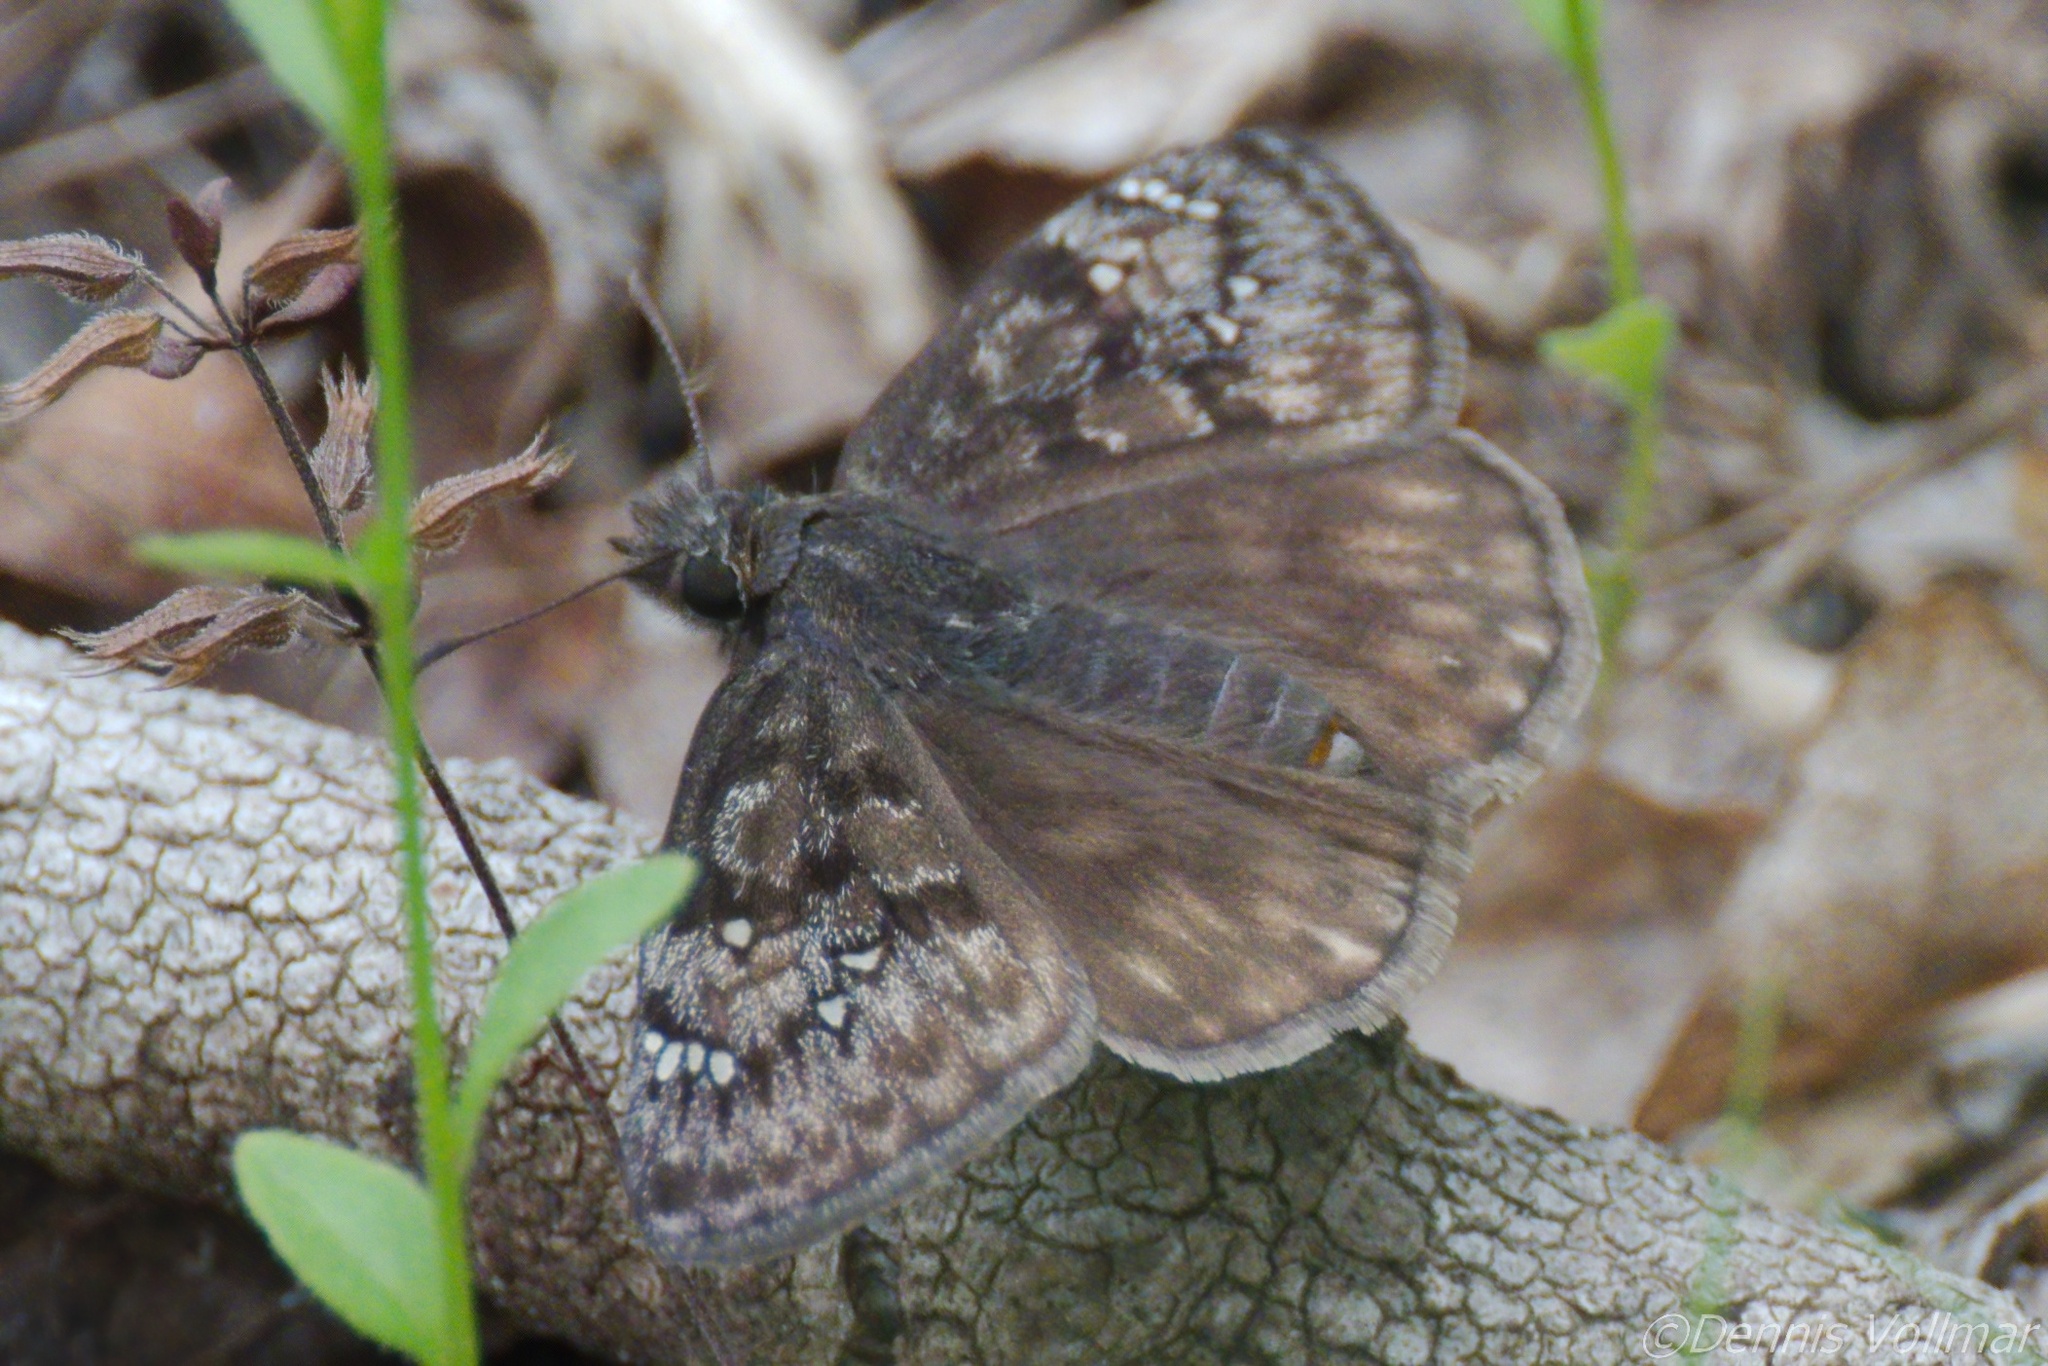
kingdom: Animalia
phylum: Arthropoda
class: Insecta
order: Lepidoptera
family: Hesperiidae
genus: Erynnis
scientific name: Erynnis juvenalis
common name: Juvenal's duskywing
